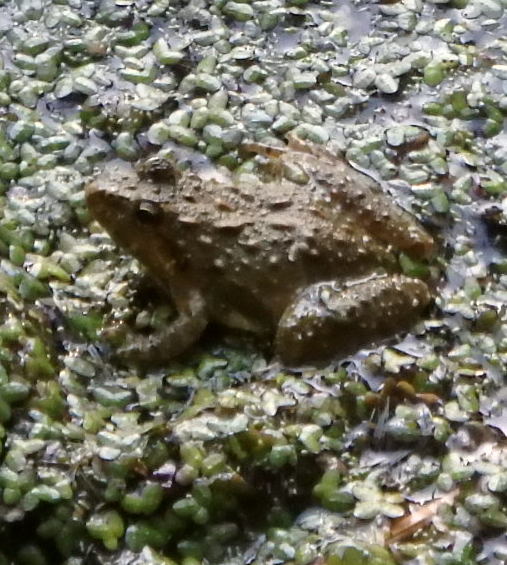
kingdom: Animalia
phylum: Chordata
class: Amphibia
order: Anura
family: Hylidae
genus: Acris
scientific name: Acris crepitans
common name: Northern cricket frog
